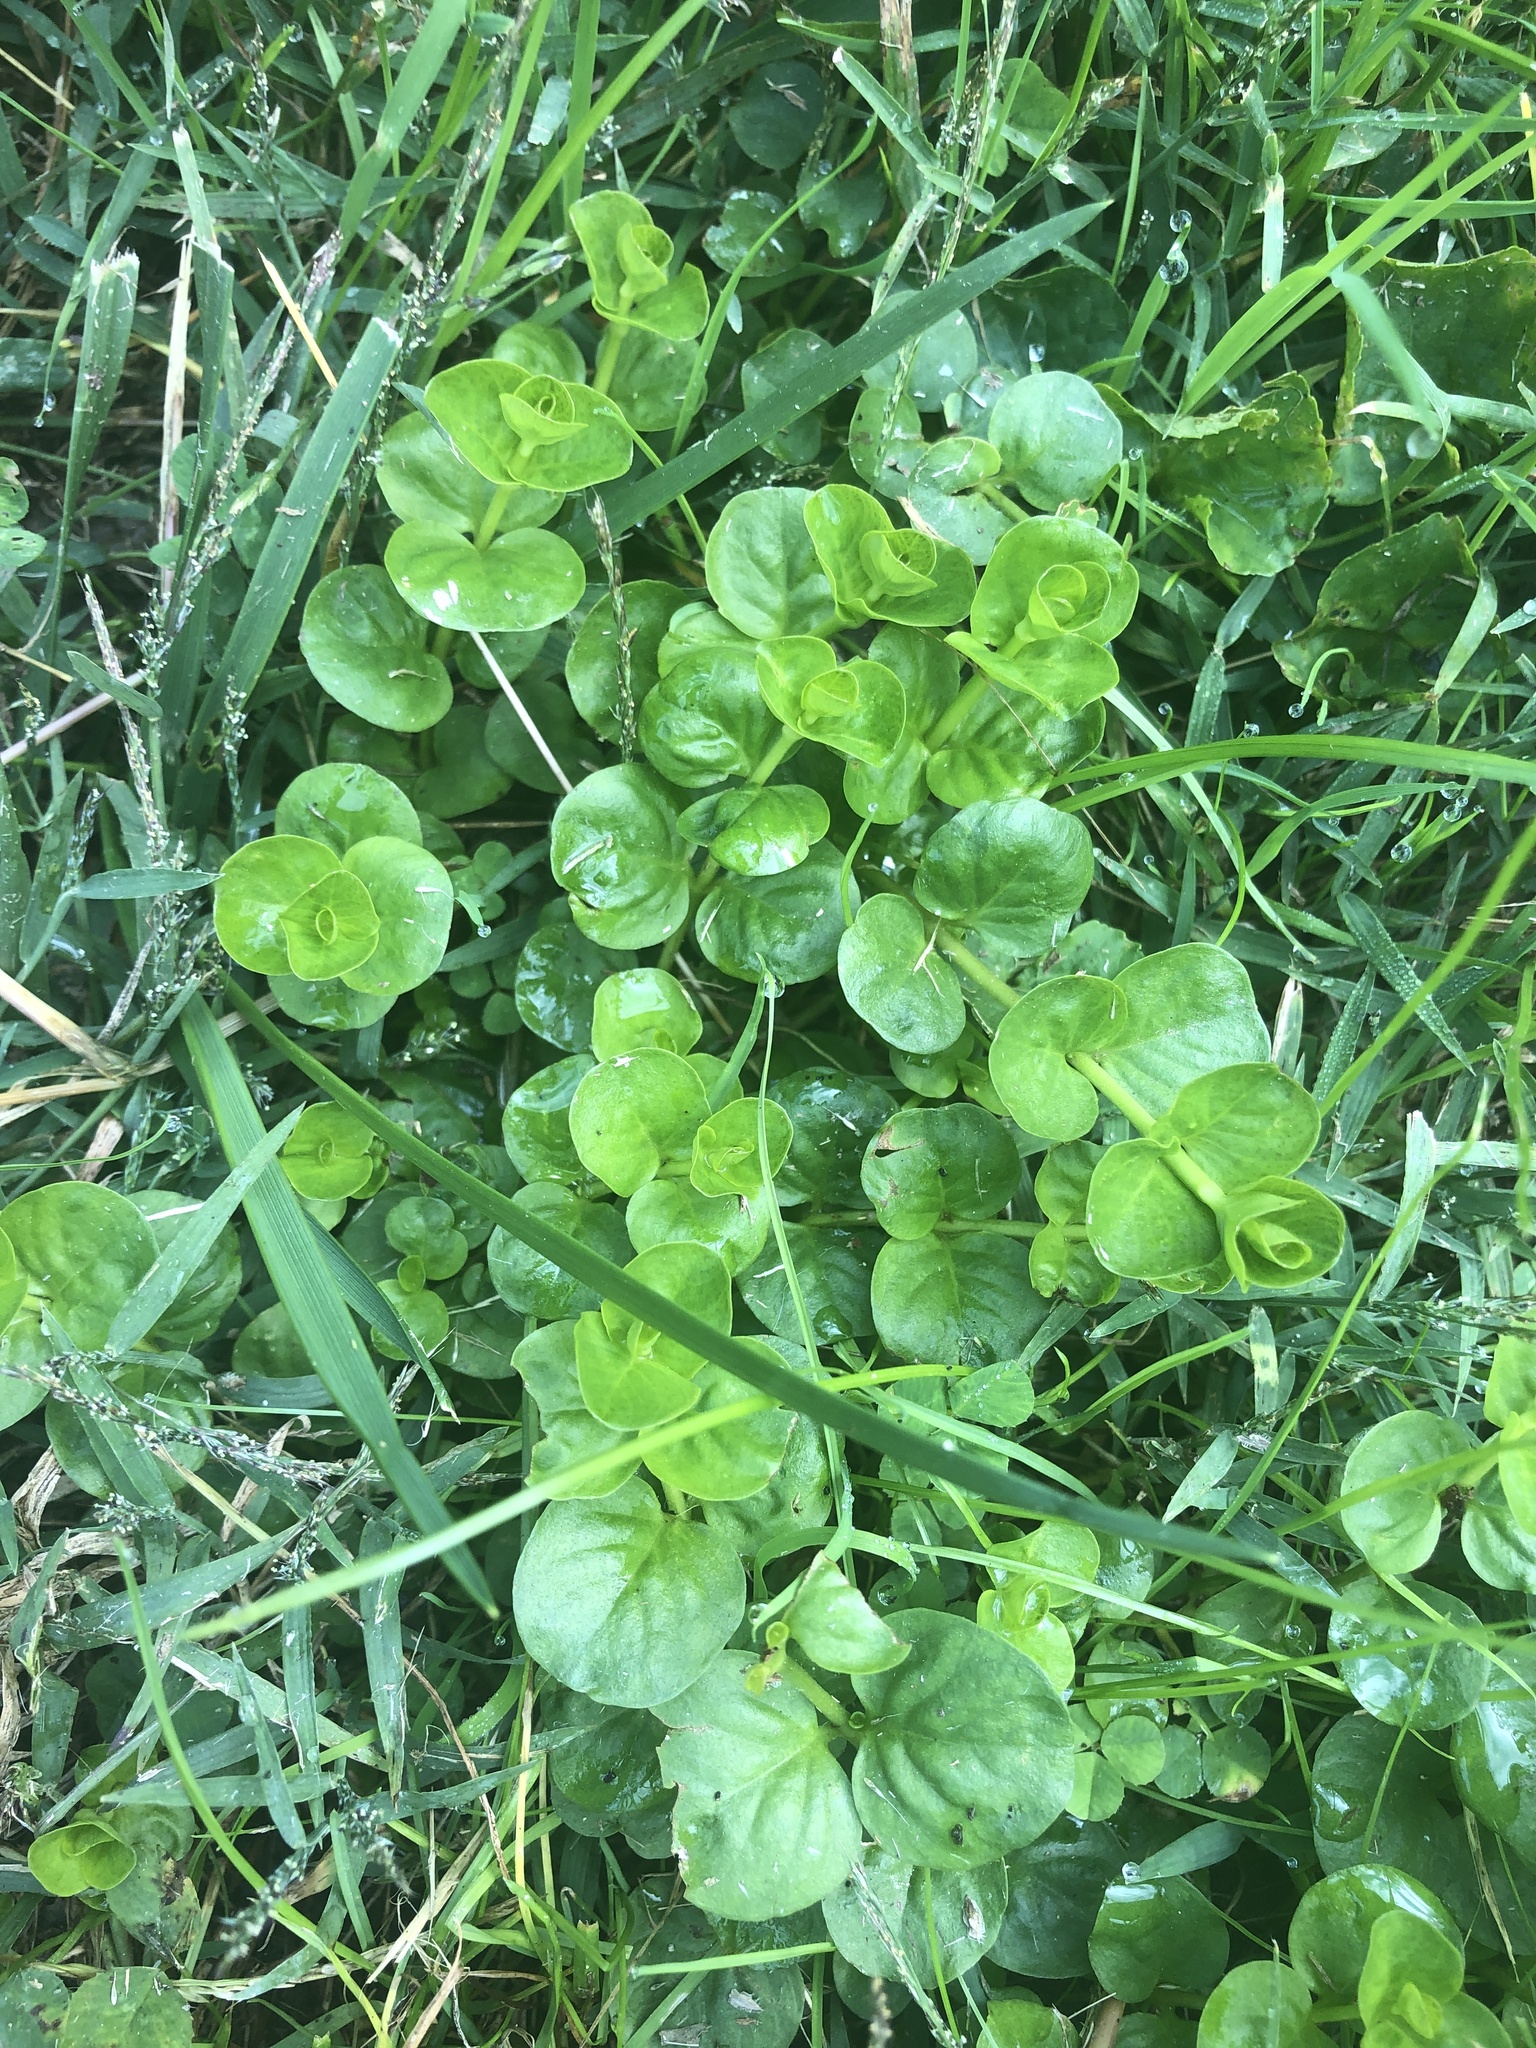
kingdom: Plantae
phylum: Tracheophyta
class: Magnoliopsida
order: Ericales
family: Primulaceae
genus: Lysimachia
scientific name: Lysimachia nummularia
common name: Moneywort
